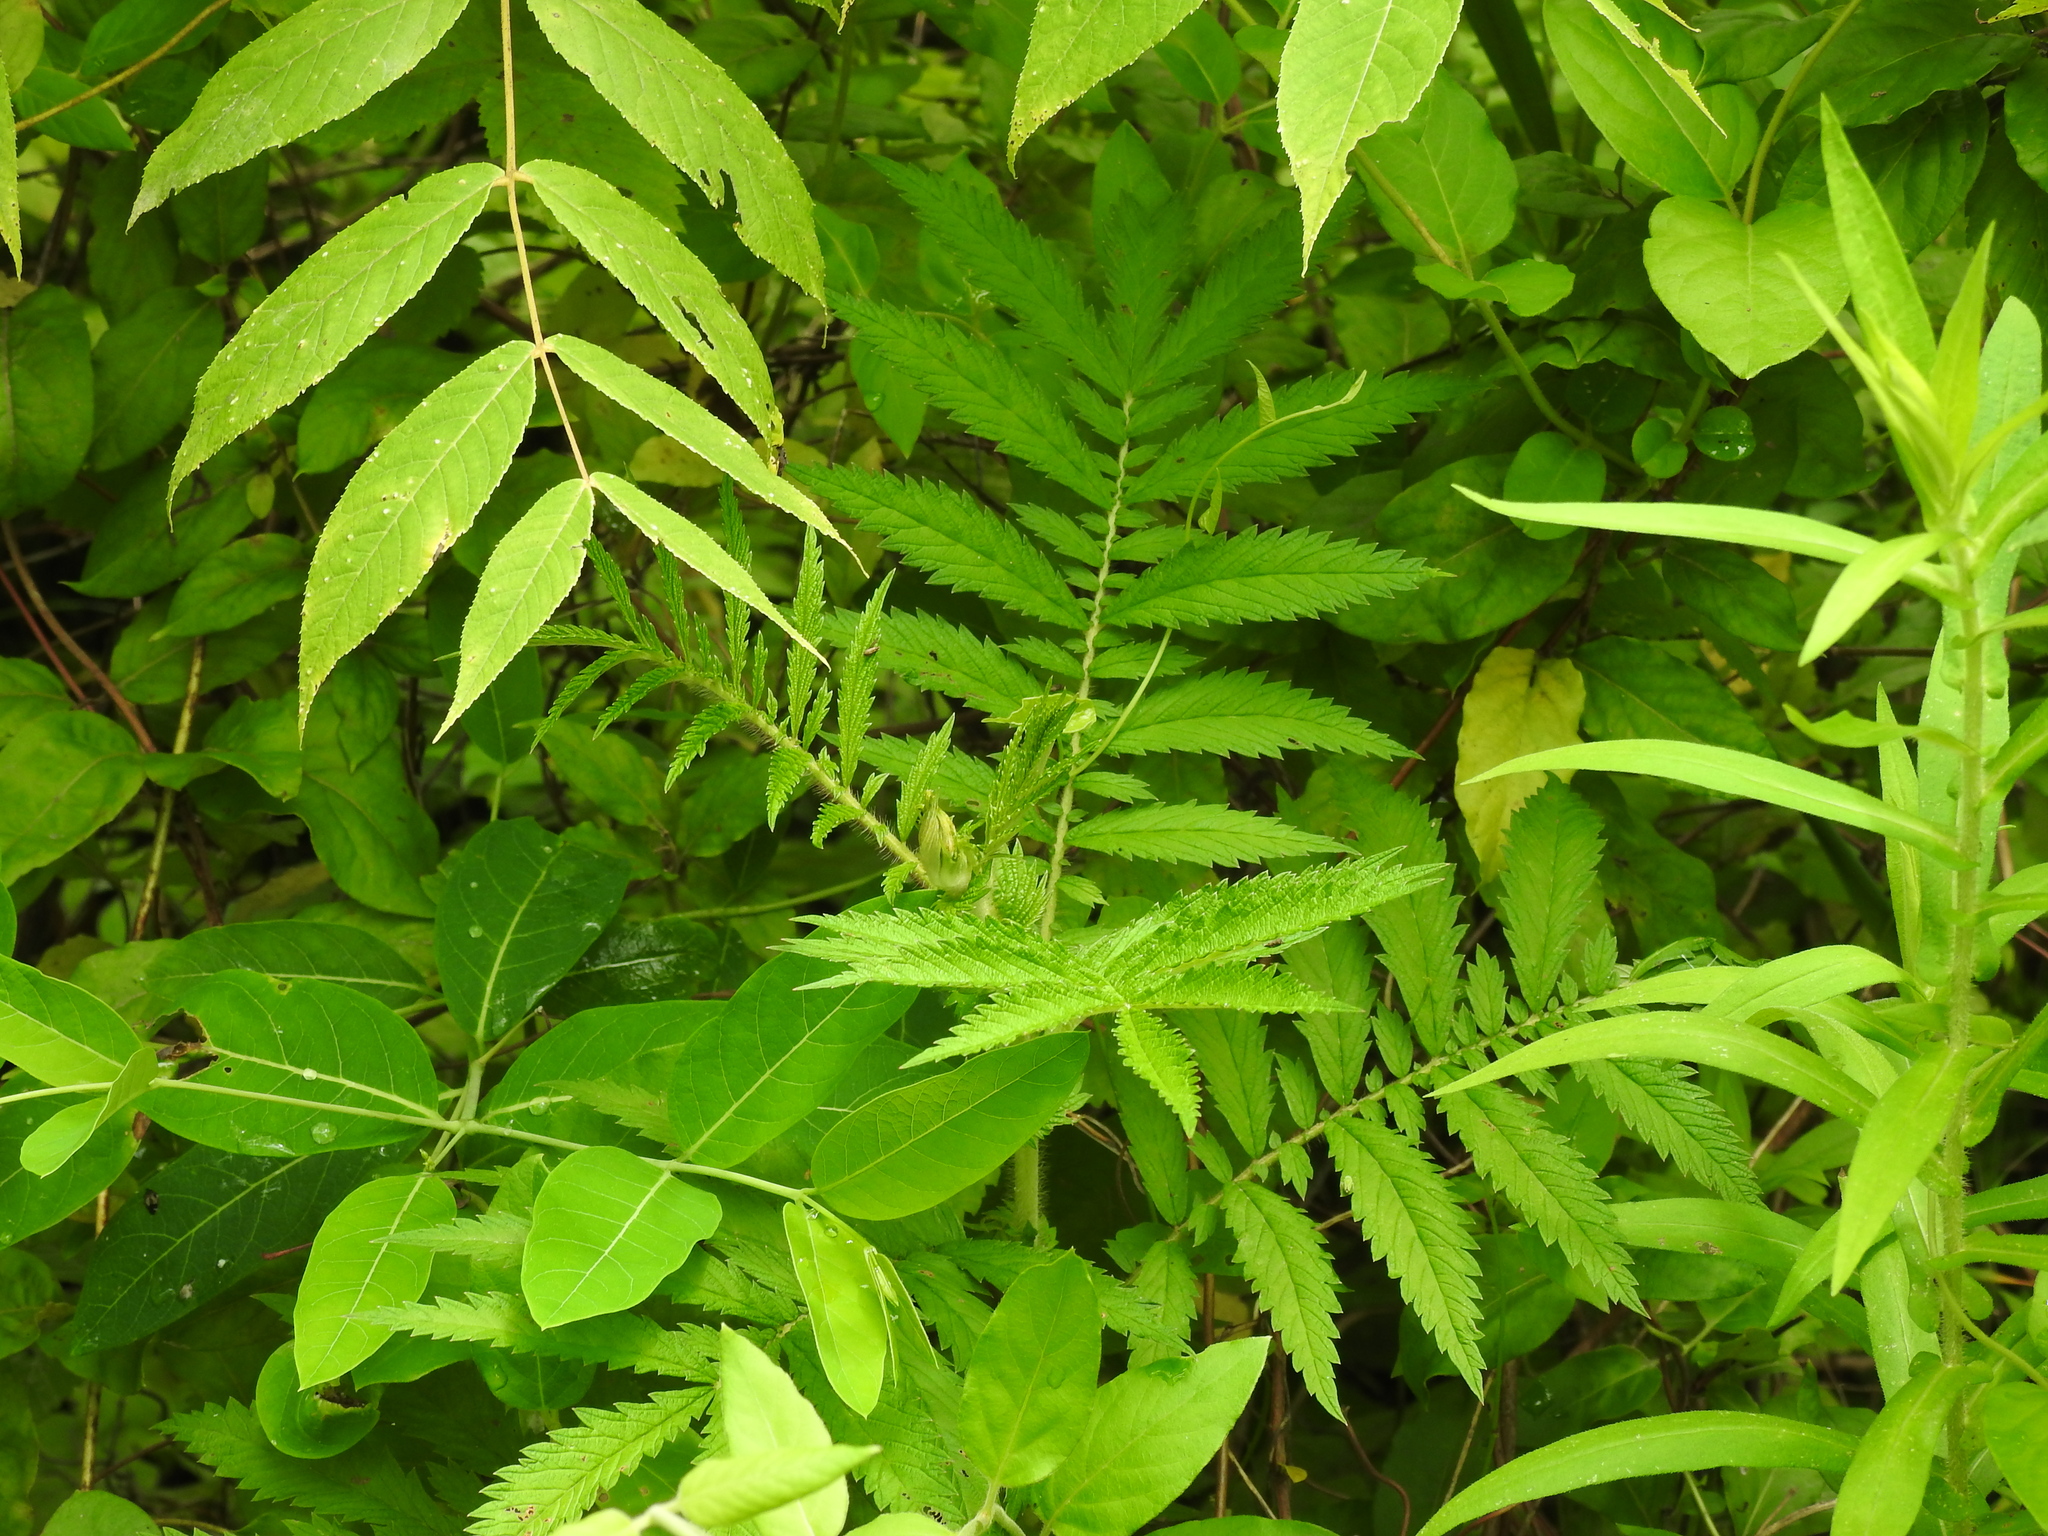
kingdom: Plantae
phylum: Tracheophyta
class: Magnoliopsida
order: Rosales
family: Rosaceae
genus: Agrimonia
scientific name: Agrimonia parviflora
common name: Harvest-lice
